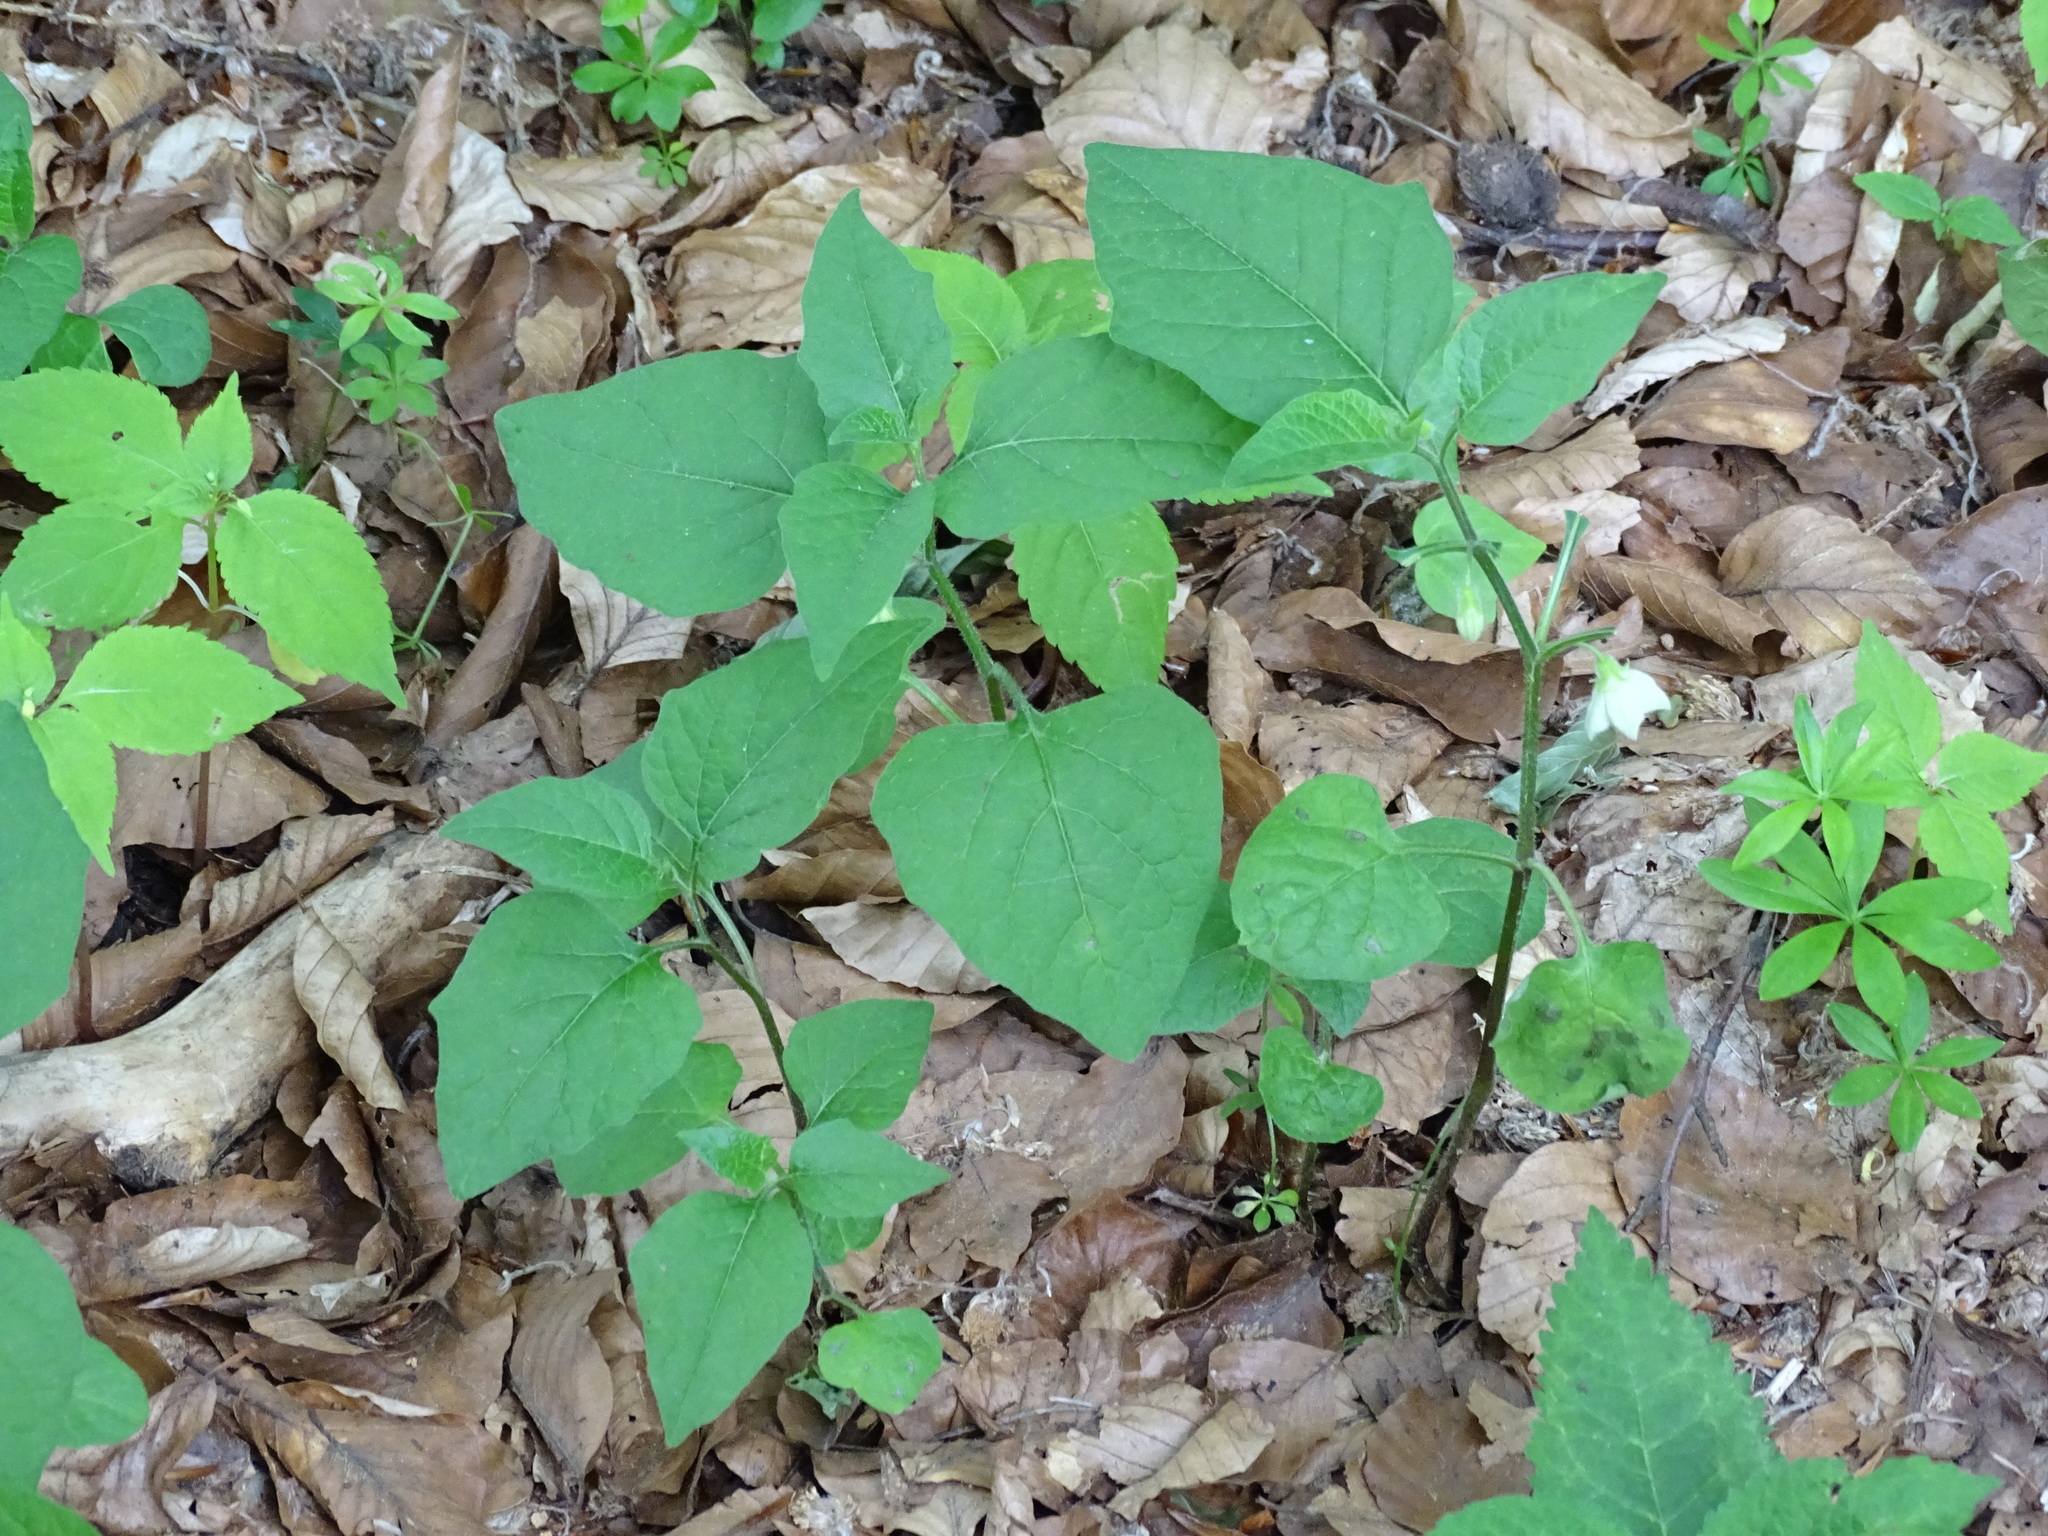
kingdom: Plantae
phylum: Tracheophyta
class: Magnoliopsida
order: Solanales
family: Solanaceae
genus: Alkekengi
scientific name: Alkekengi officinarum
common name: Japanese-lantern
